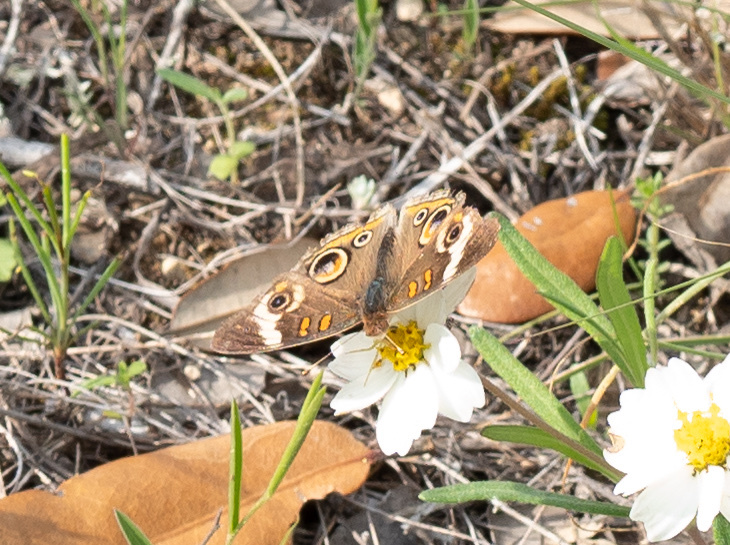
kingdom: Animalia
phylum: Arthropoda
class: Insecta
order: Lepidoptera
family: Nymphalidae
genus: Junonia
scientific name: Junonia coenia
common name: Common buckeye
